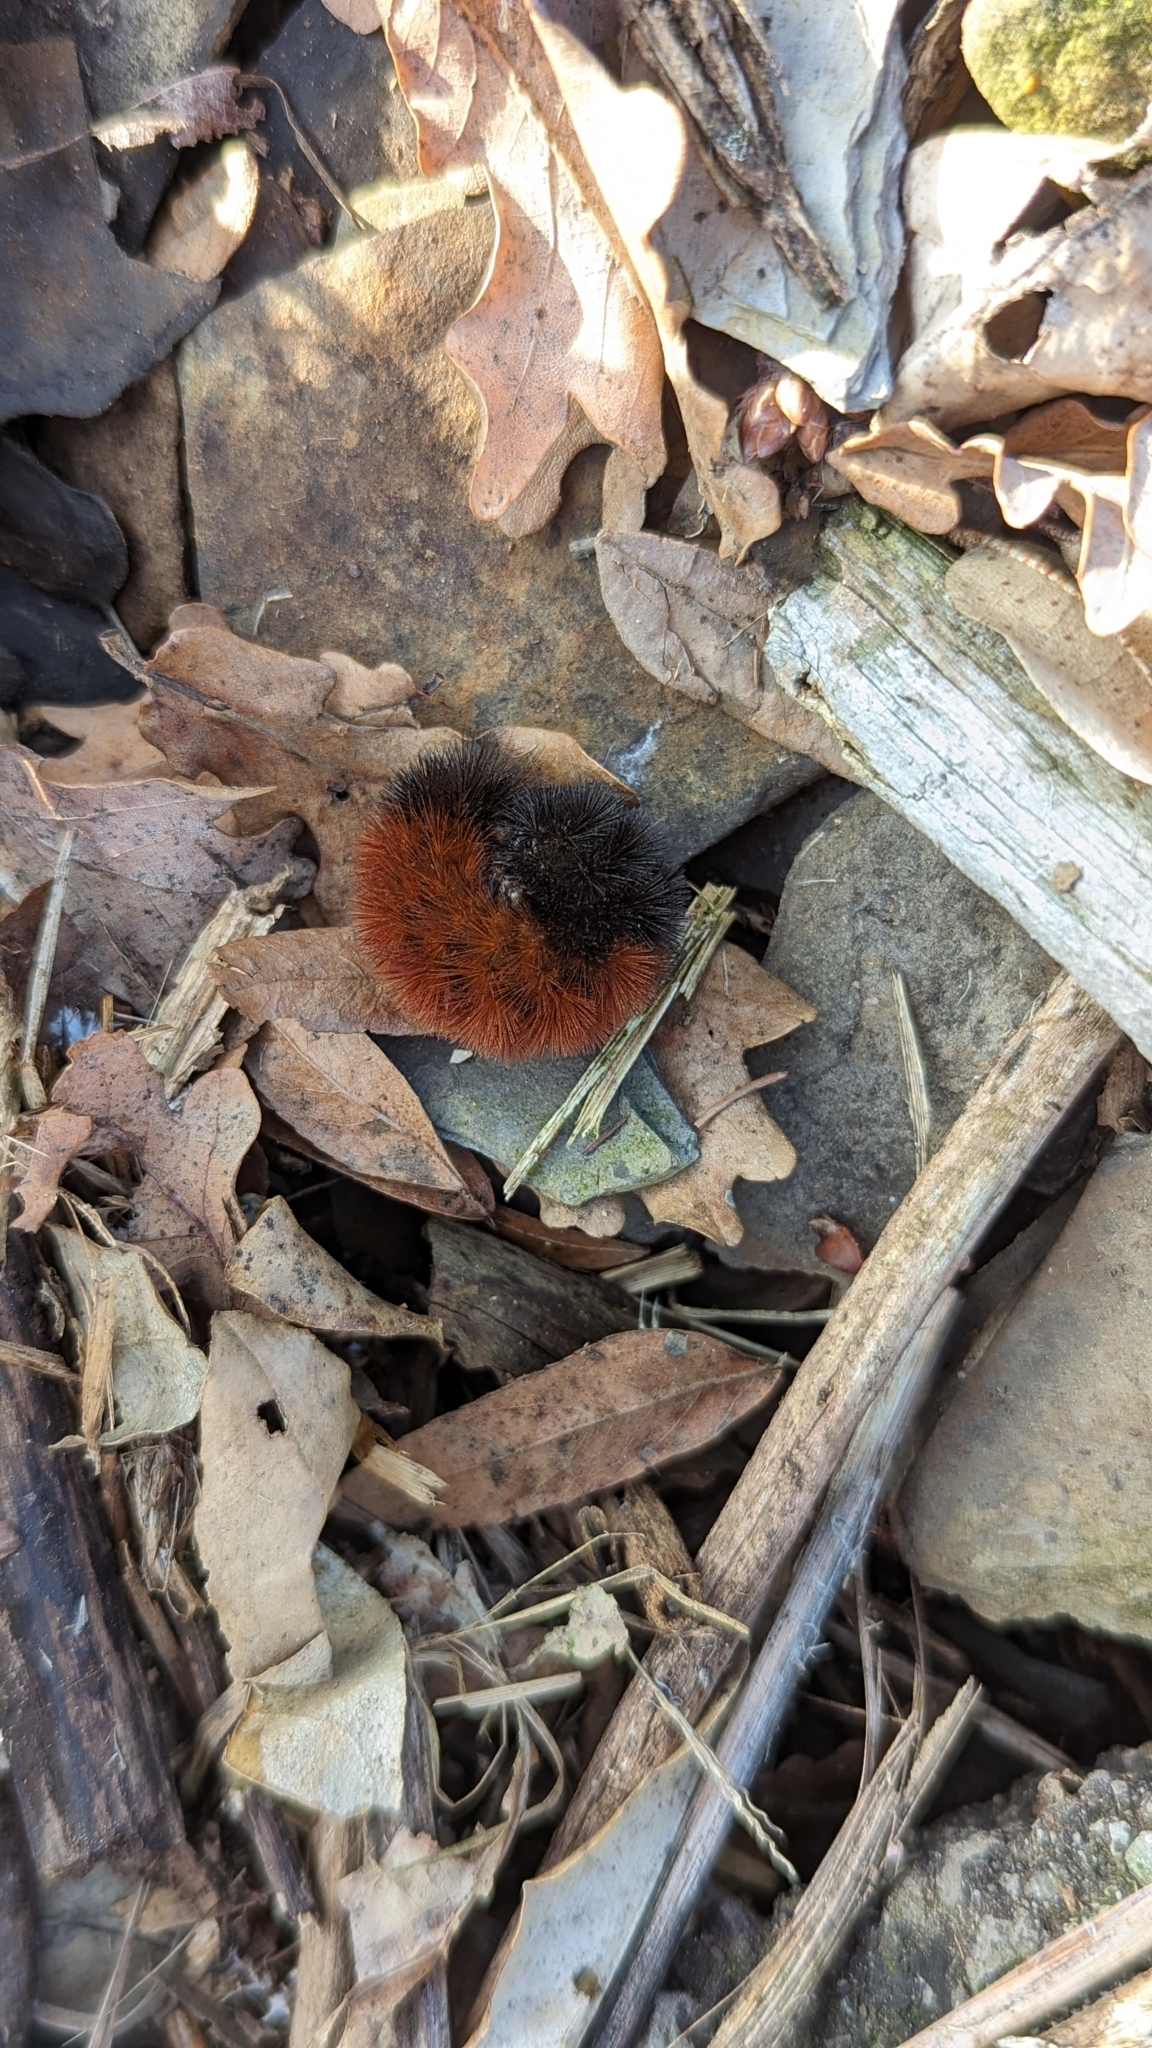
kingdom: Animalia
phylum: Arthropoda
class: Insecta
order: Lepidoptera
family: Erebidae
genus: Pyrrharctia
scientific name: Pyrrharctia isabella
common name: Isabella tiger moth
